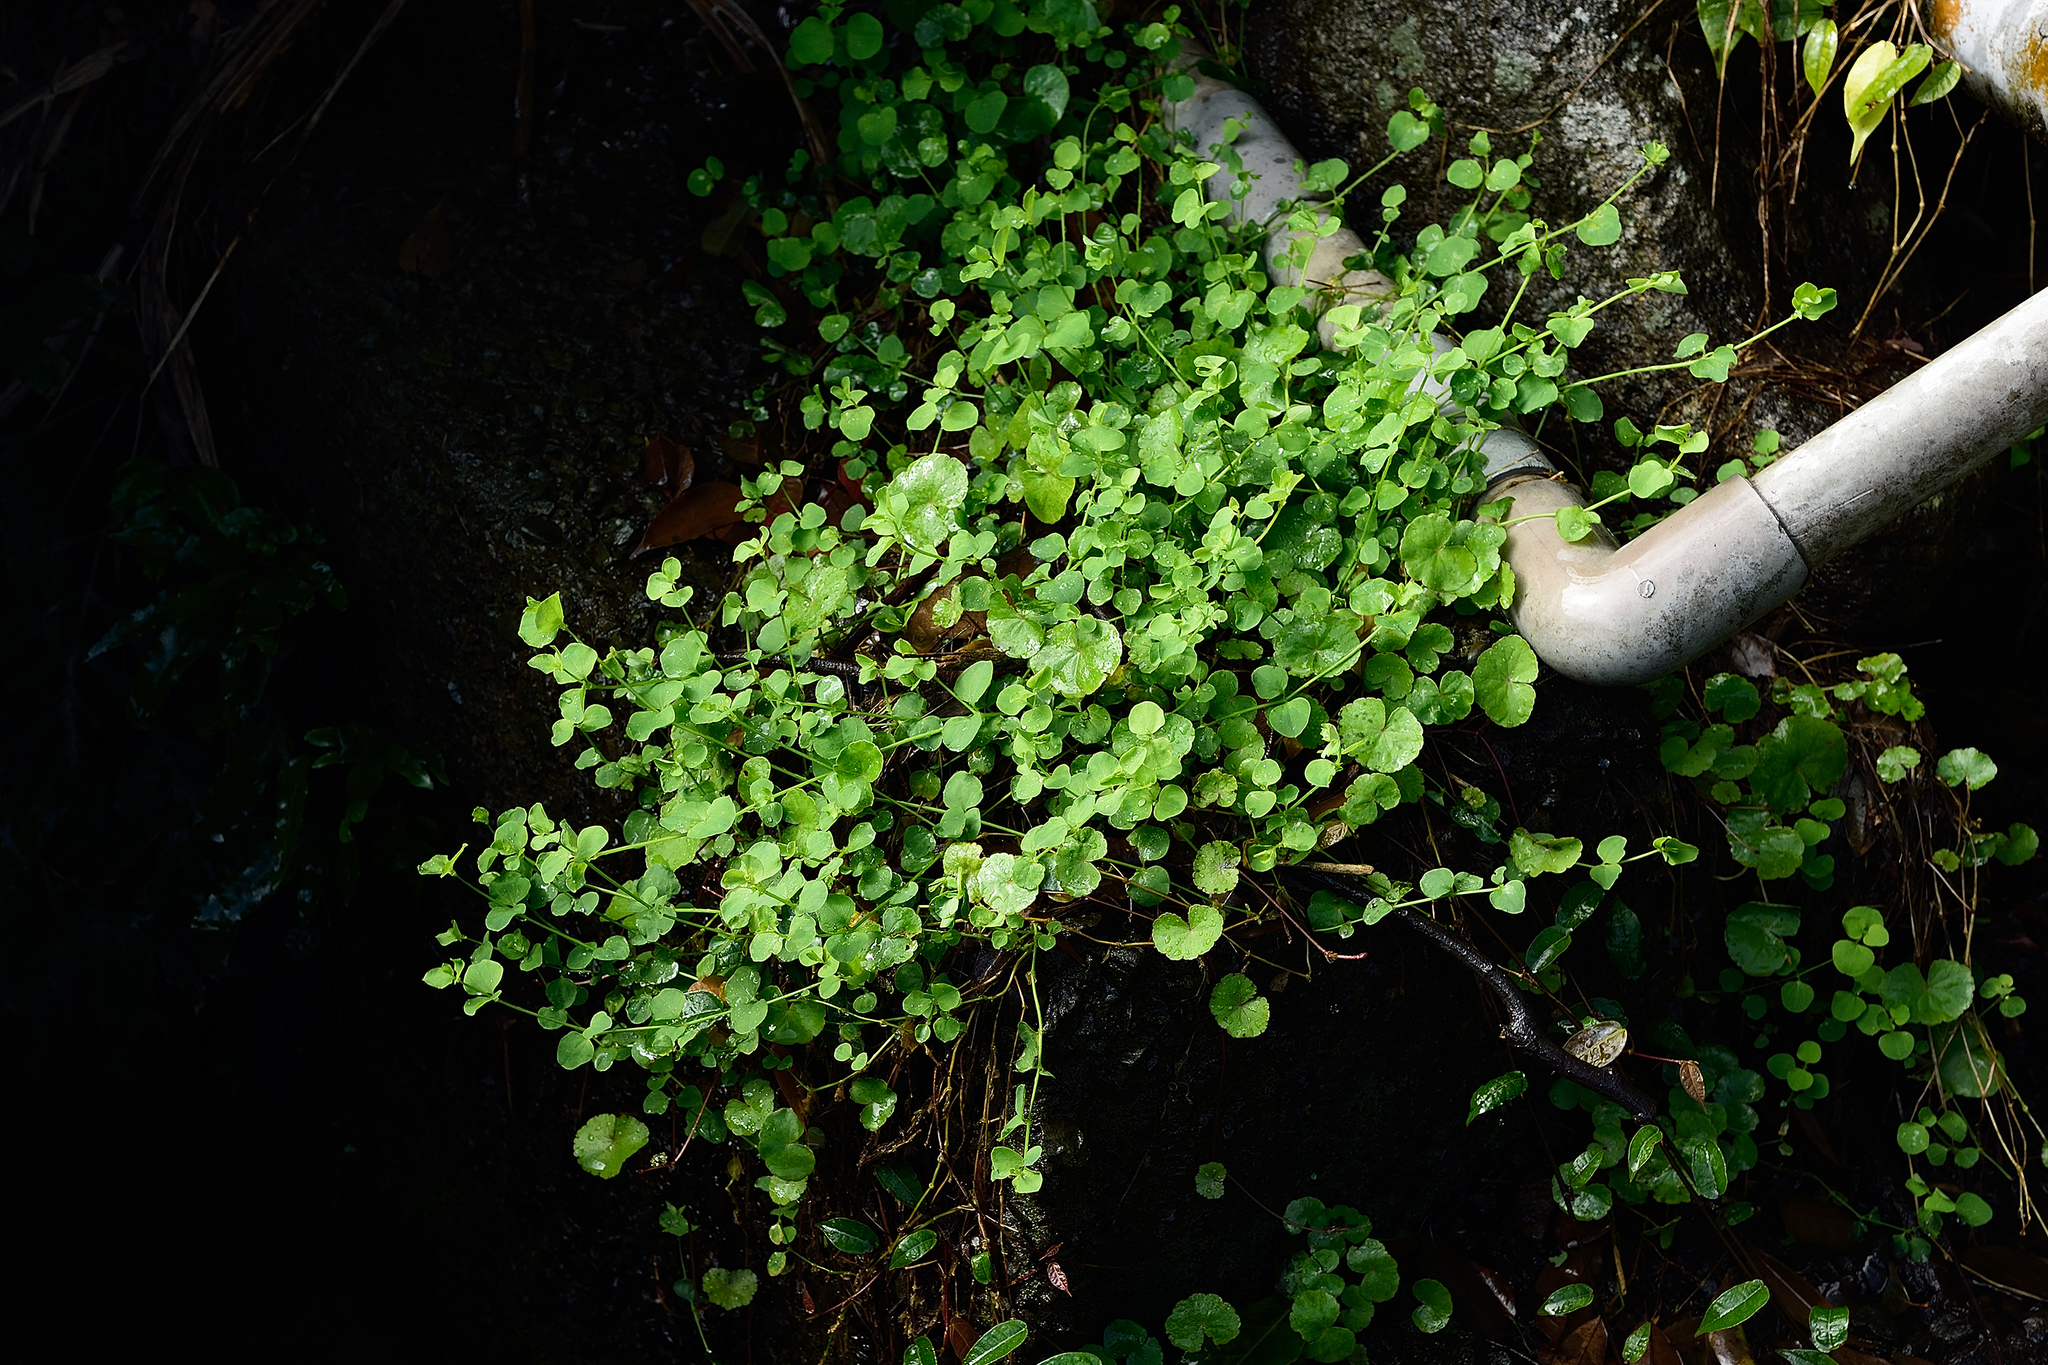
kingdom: Plantae
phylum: Tracheophyta
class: Magnoliopsida
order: Caryophyllales
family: Caryophyllaceae
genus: Drymaria
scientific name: Drymaria cordata
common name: Whitesnow
